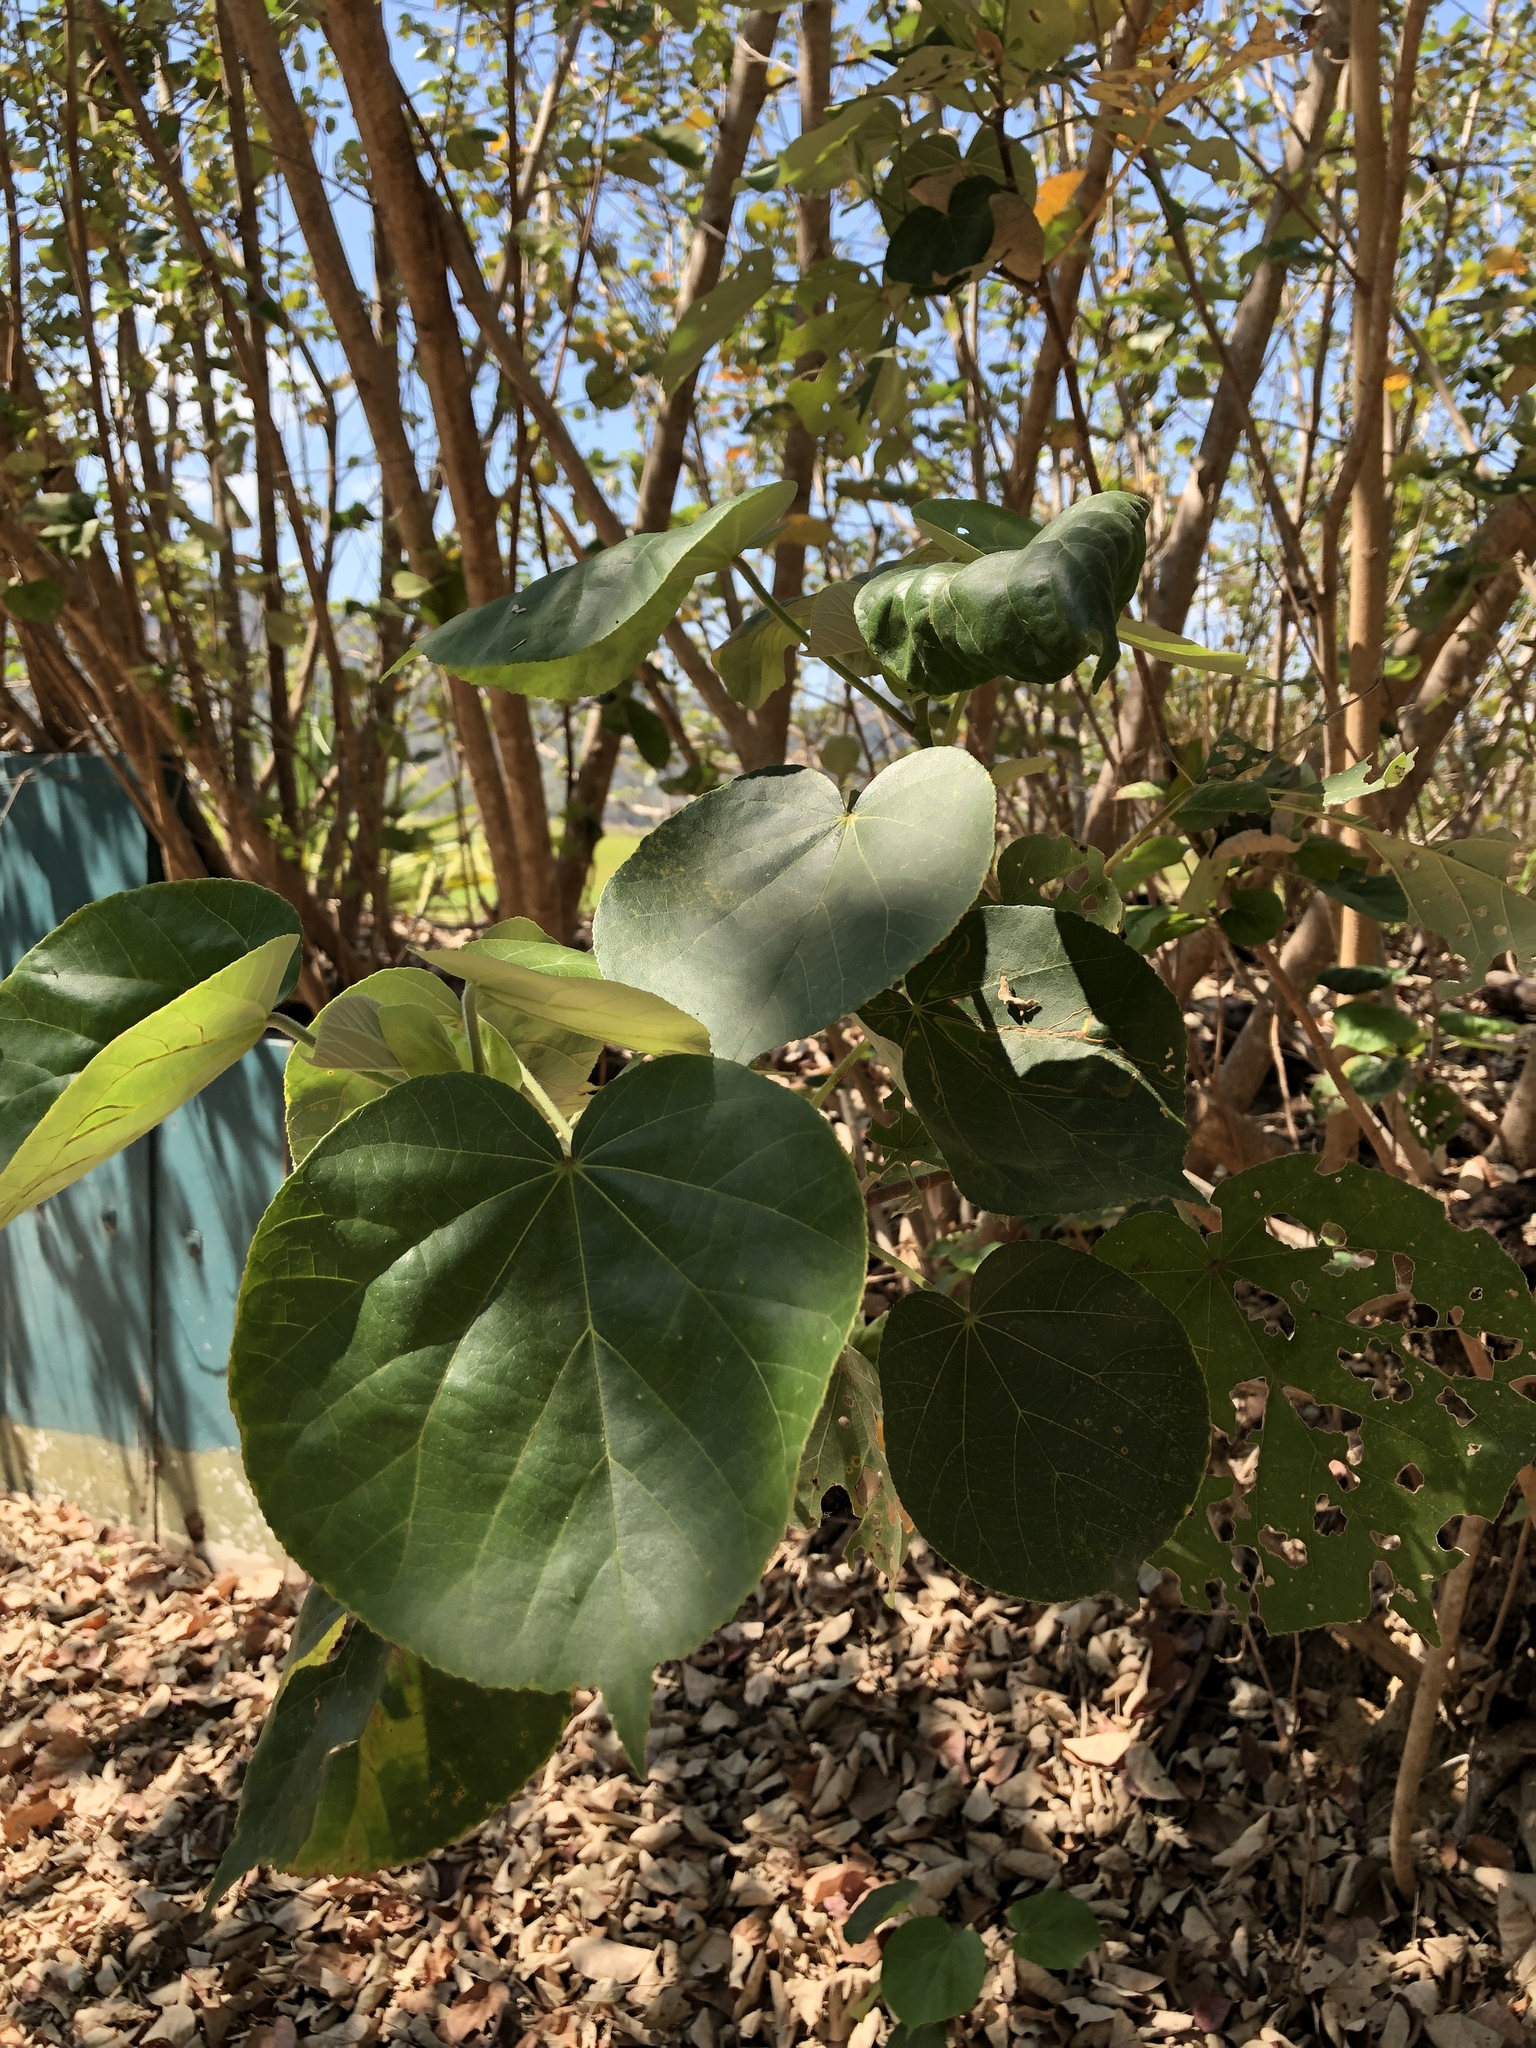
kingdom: Plantae
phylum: Tracheophyta
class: Magnoliopsida
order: Malvales
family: Malvaceae
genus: Talipariti
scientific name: Talipariti tiliaceum
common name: Sea hibiscus
